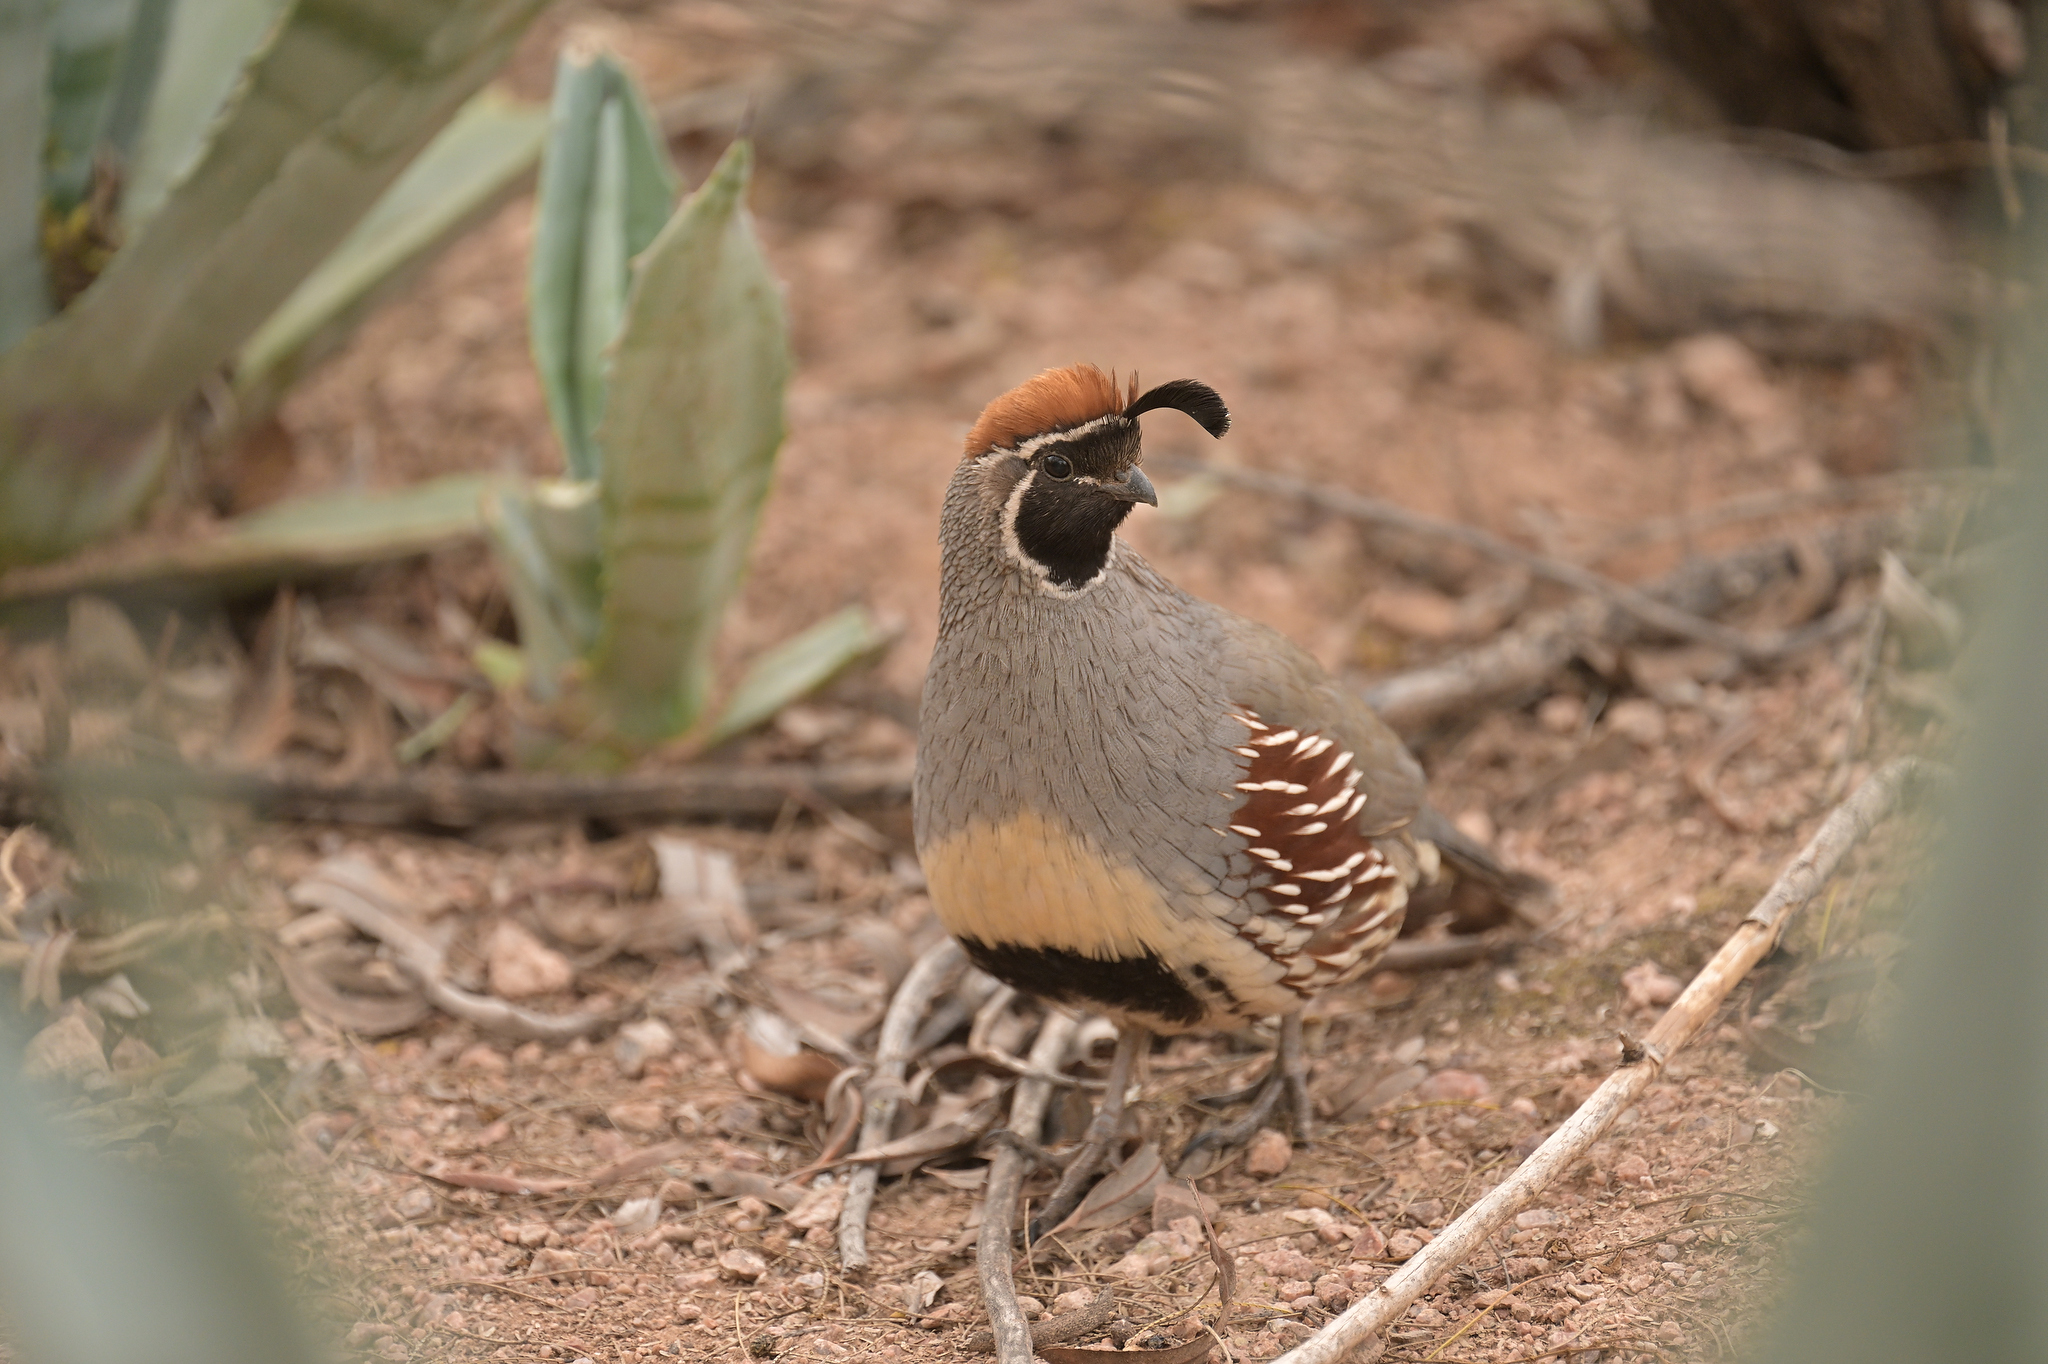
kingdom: Animalia
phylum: Chordata
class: Aves
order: Galliformes
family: Odontophoridae
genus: Callipepla
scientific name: Callipepla gambelii
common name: Gambel's quail
